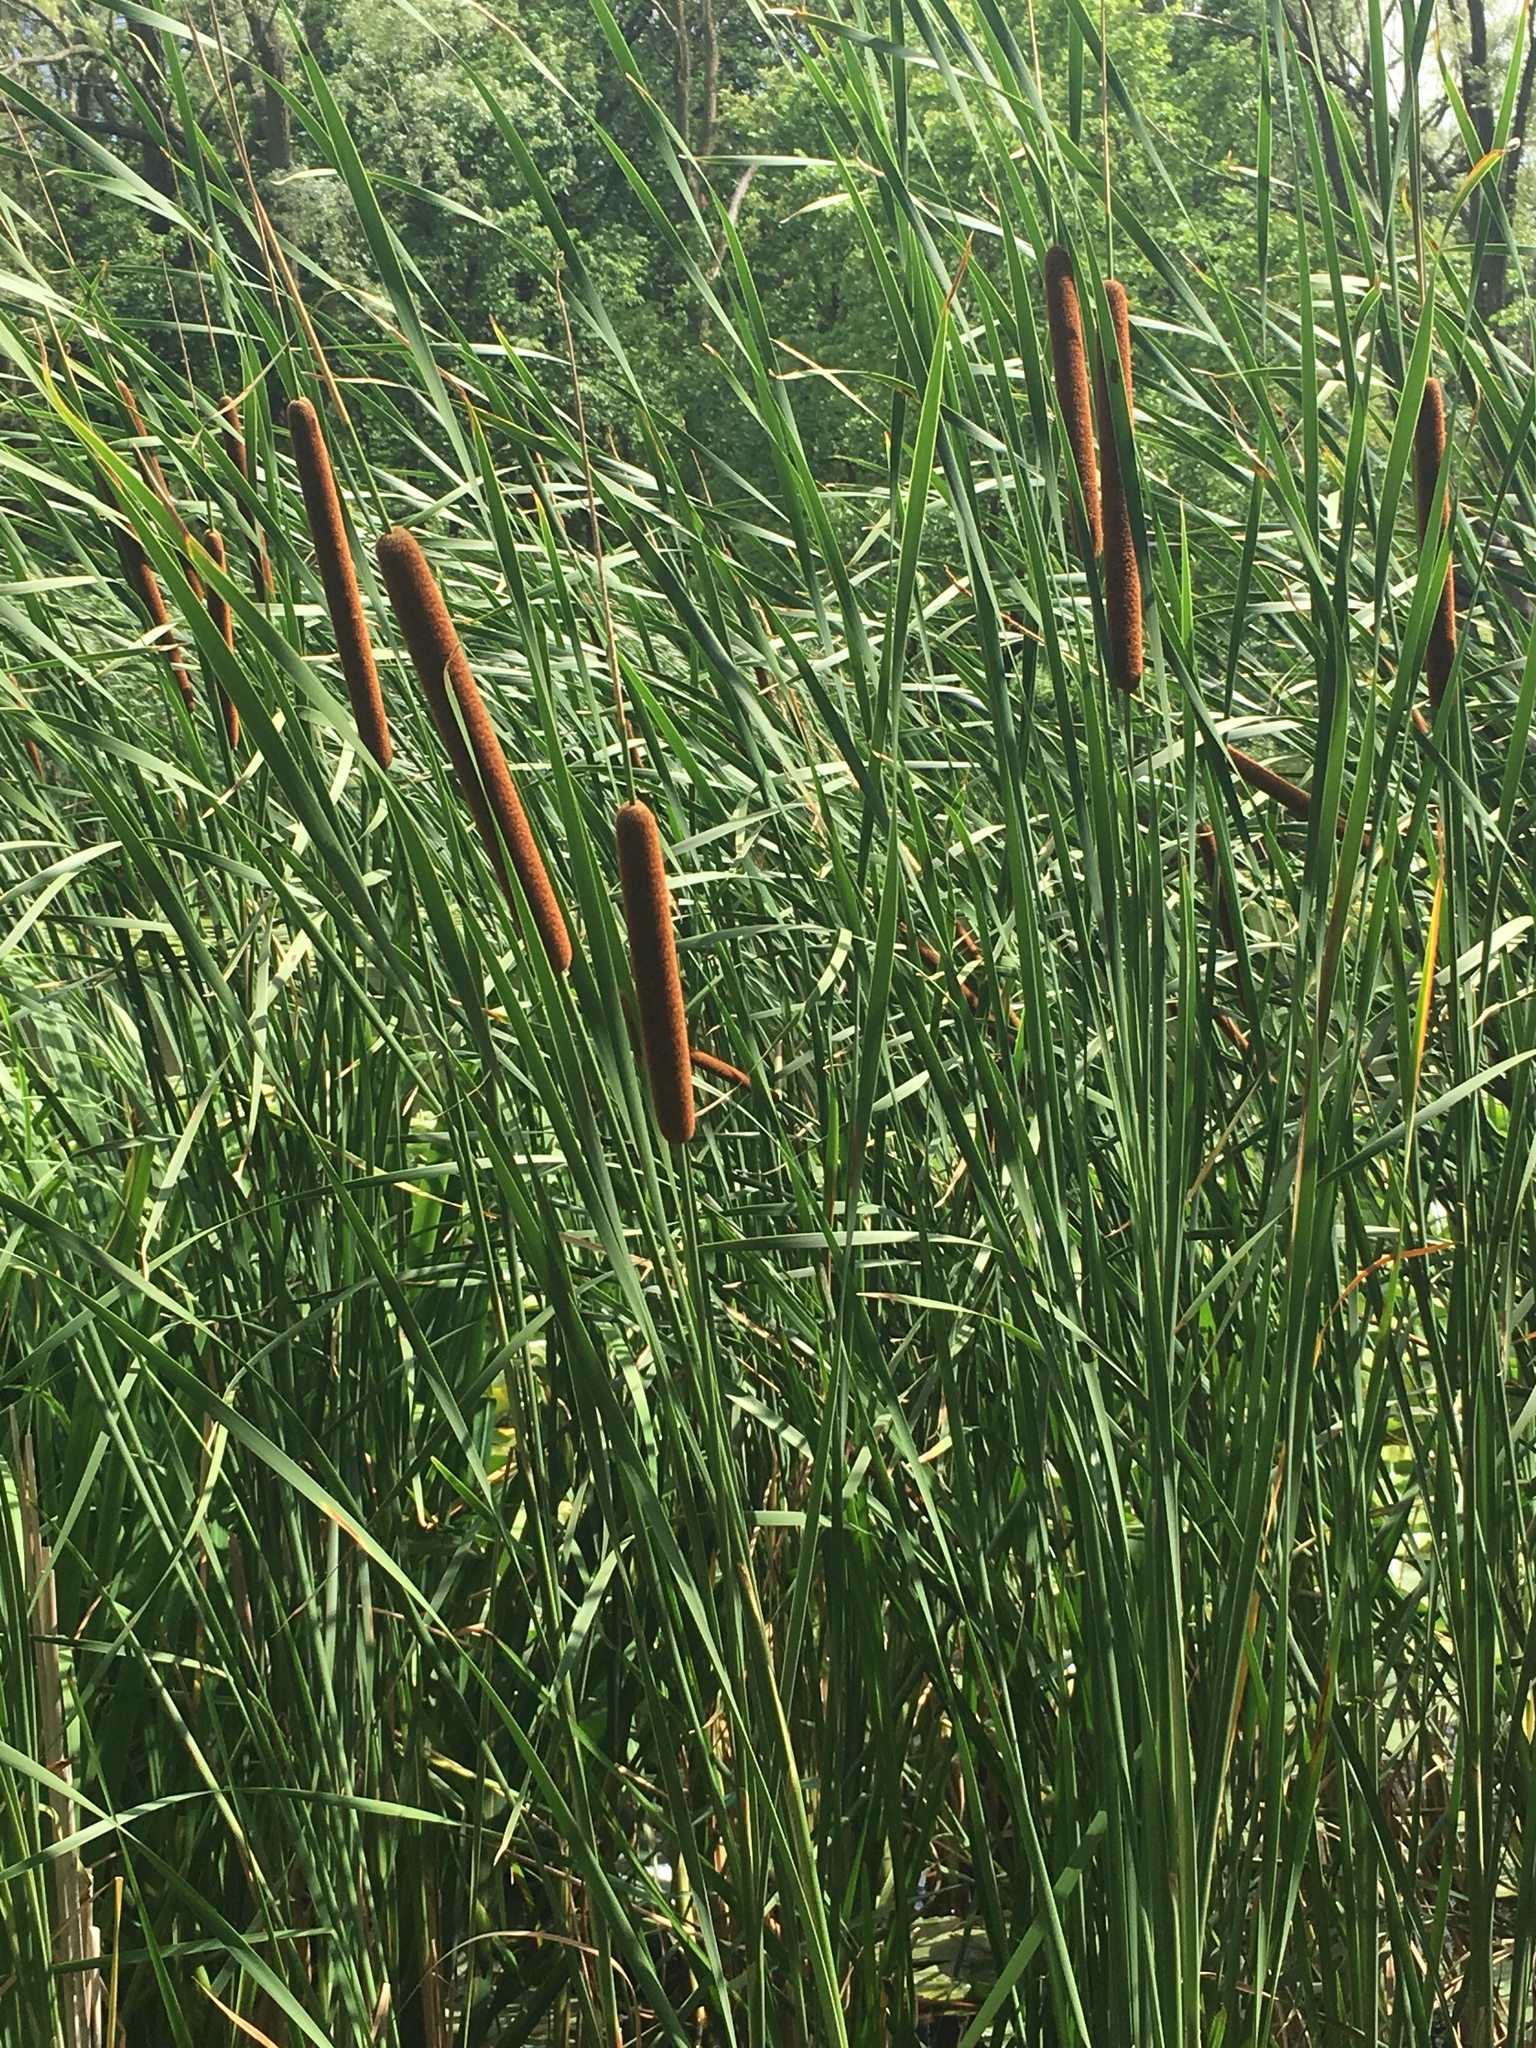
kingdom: Plantae
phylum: Tracheophyta
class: Liliopsida
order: Poales
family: Typhaceae
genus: Typha
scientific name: Typha latifolia
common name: Broadleaf cattail
